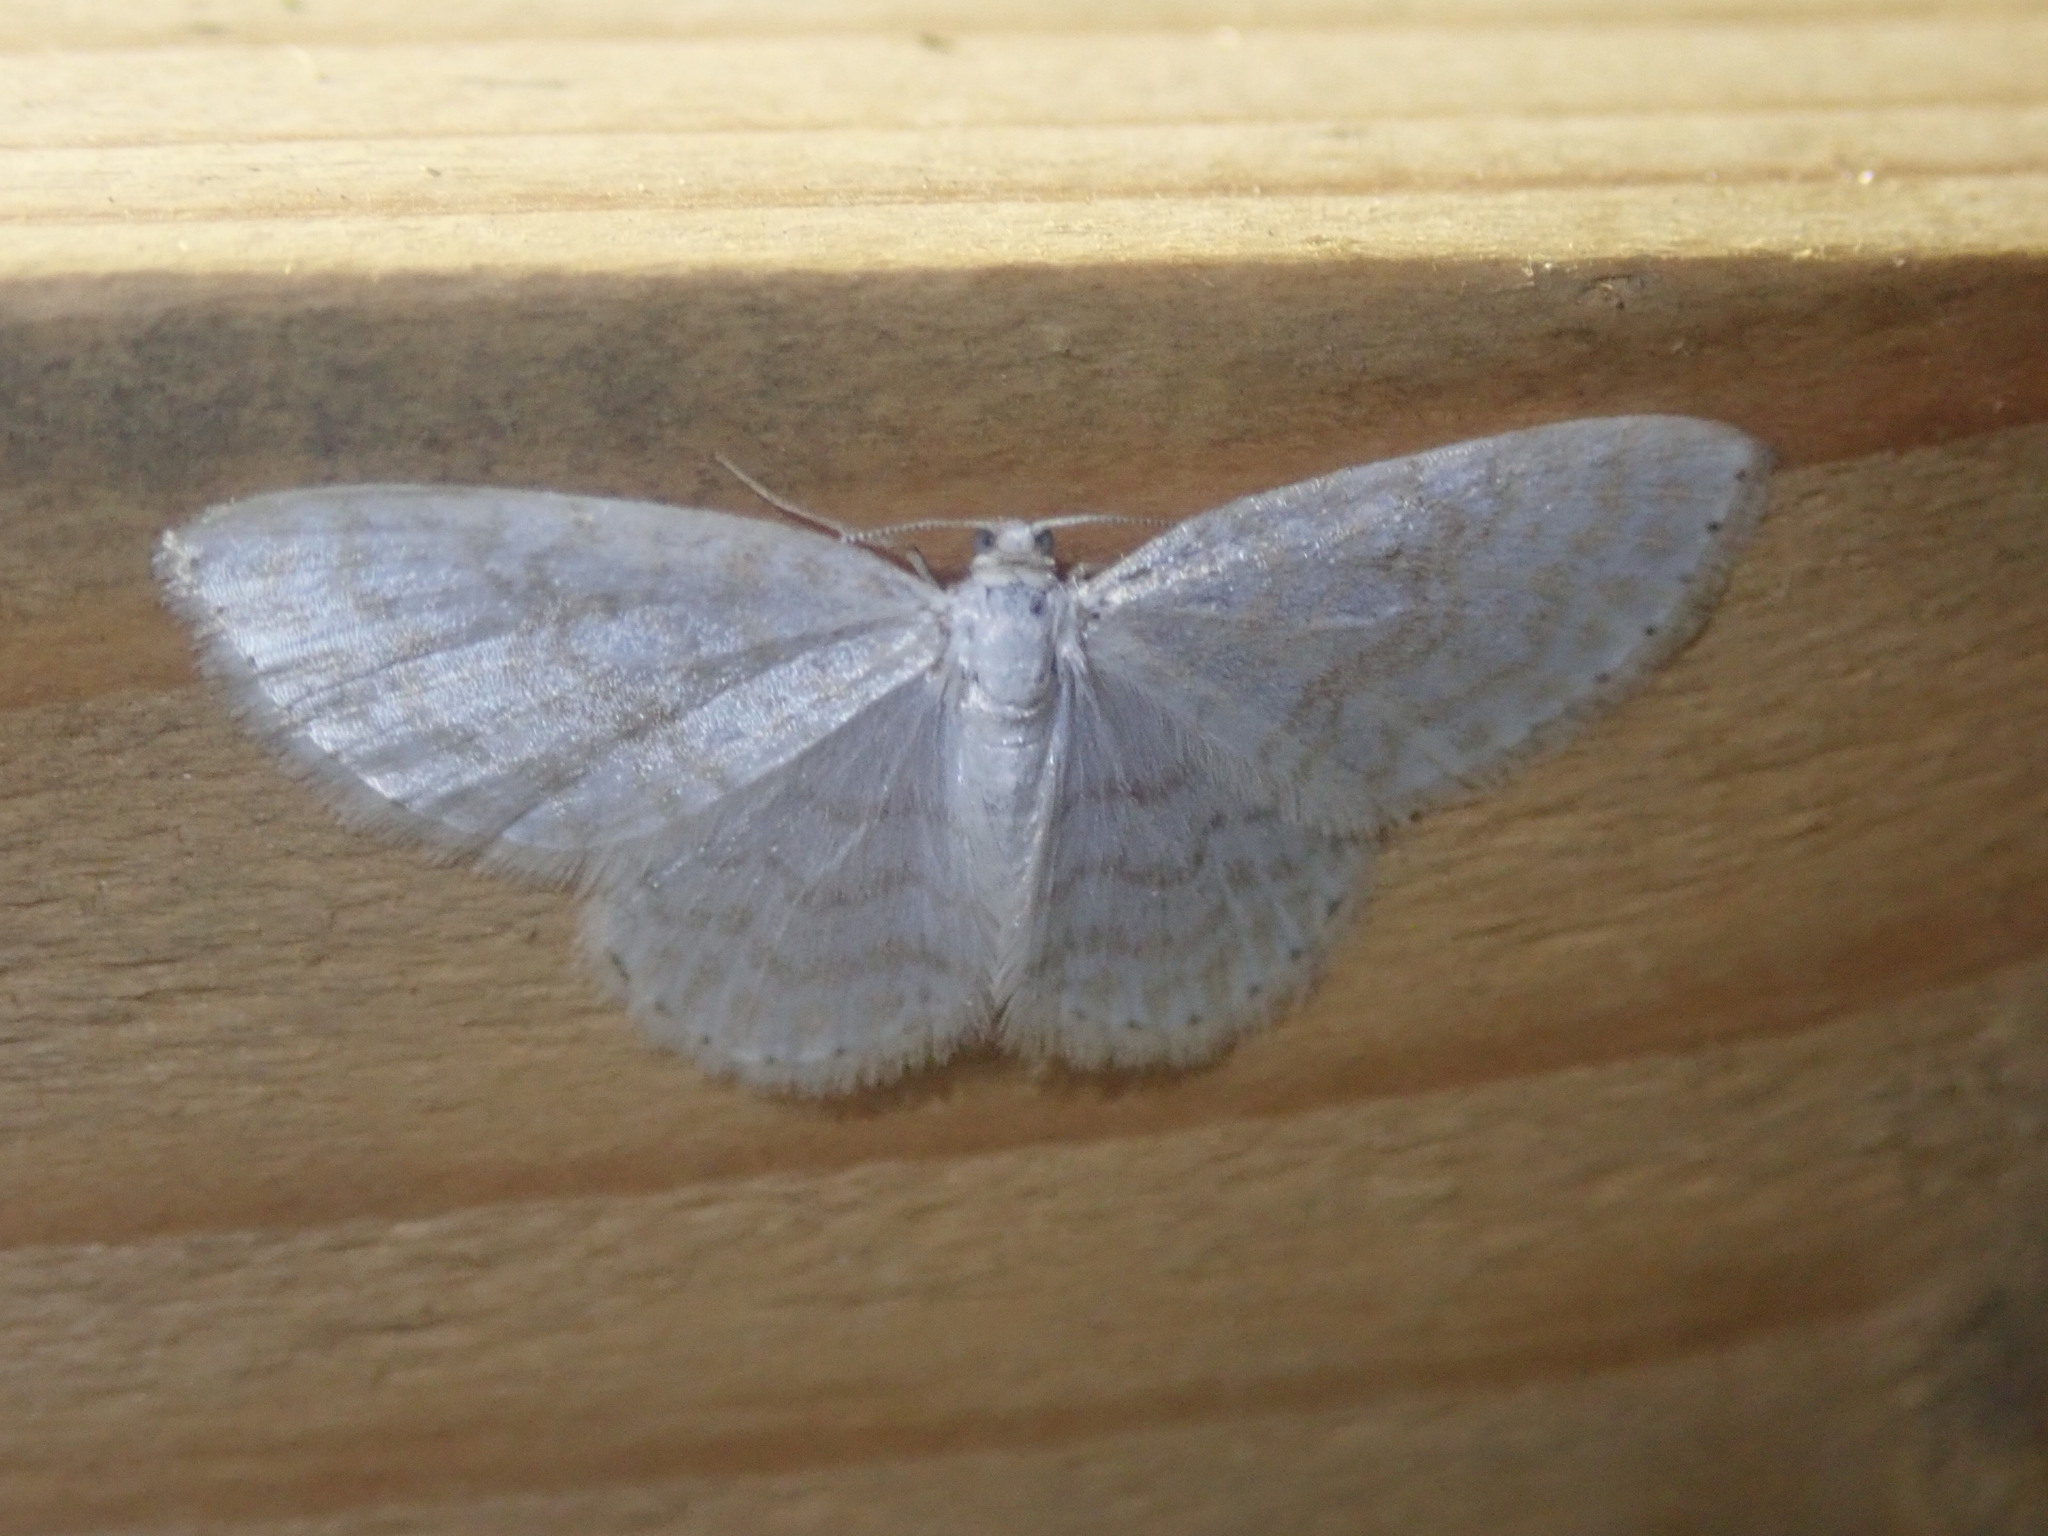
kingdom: Animalia
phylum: Arthropoda
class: Insecta
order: Lepidoptera
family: Geometridae
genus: Asthena
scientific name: Asthena albulata
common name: Small white wave
